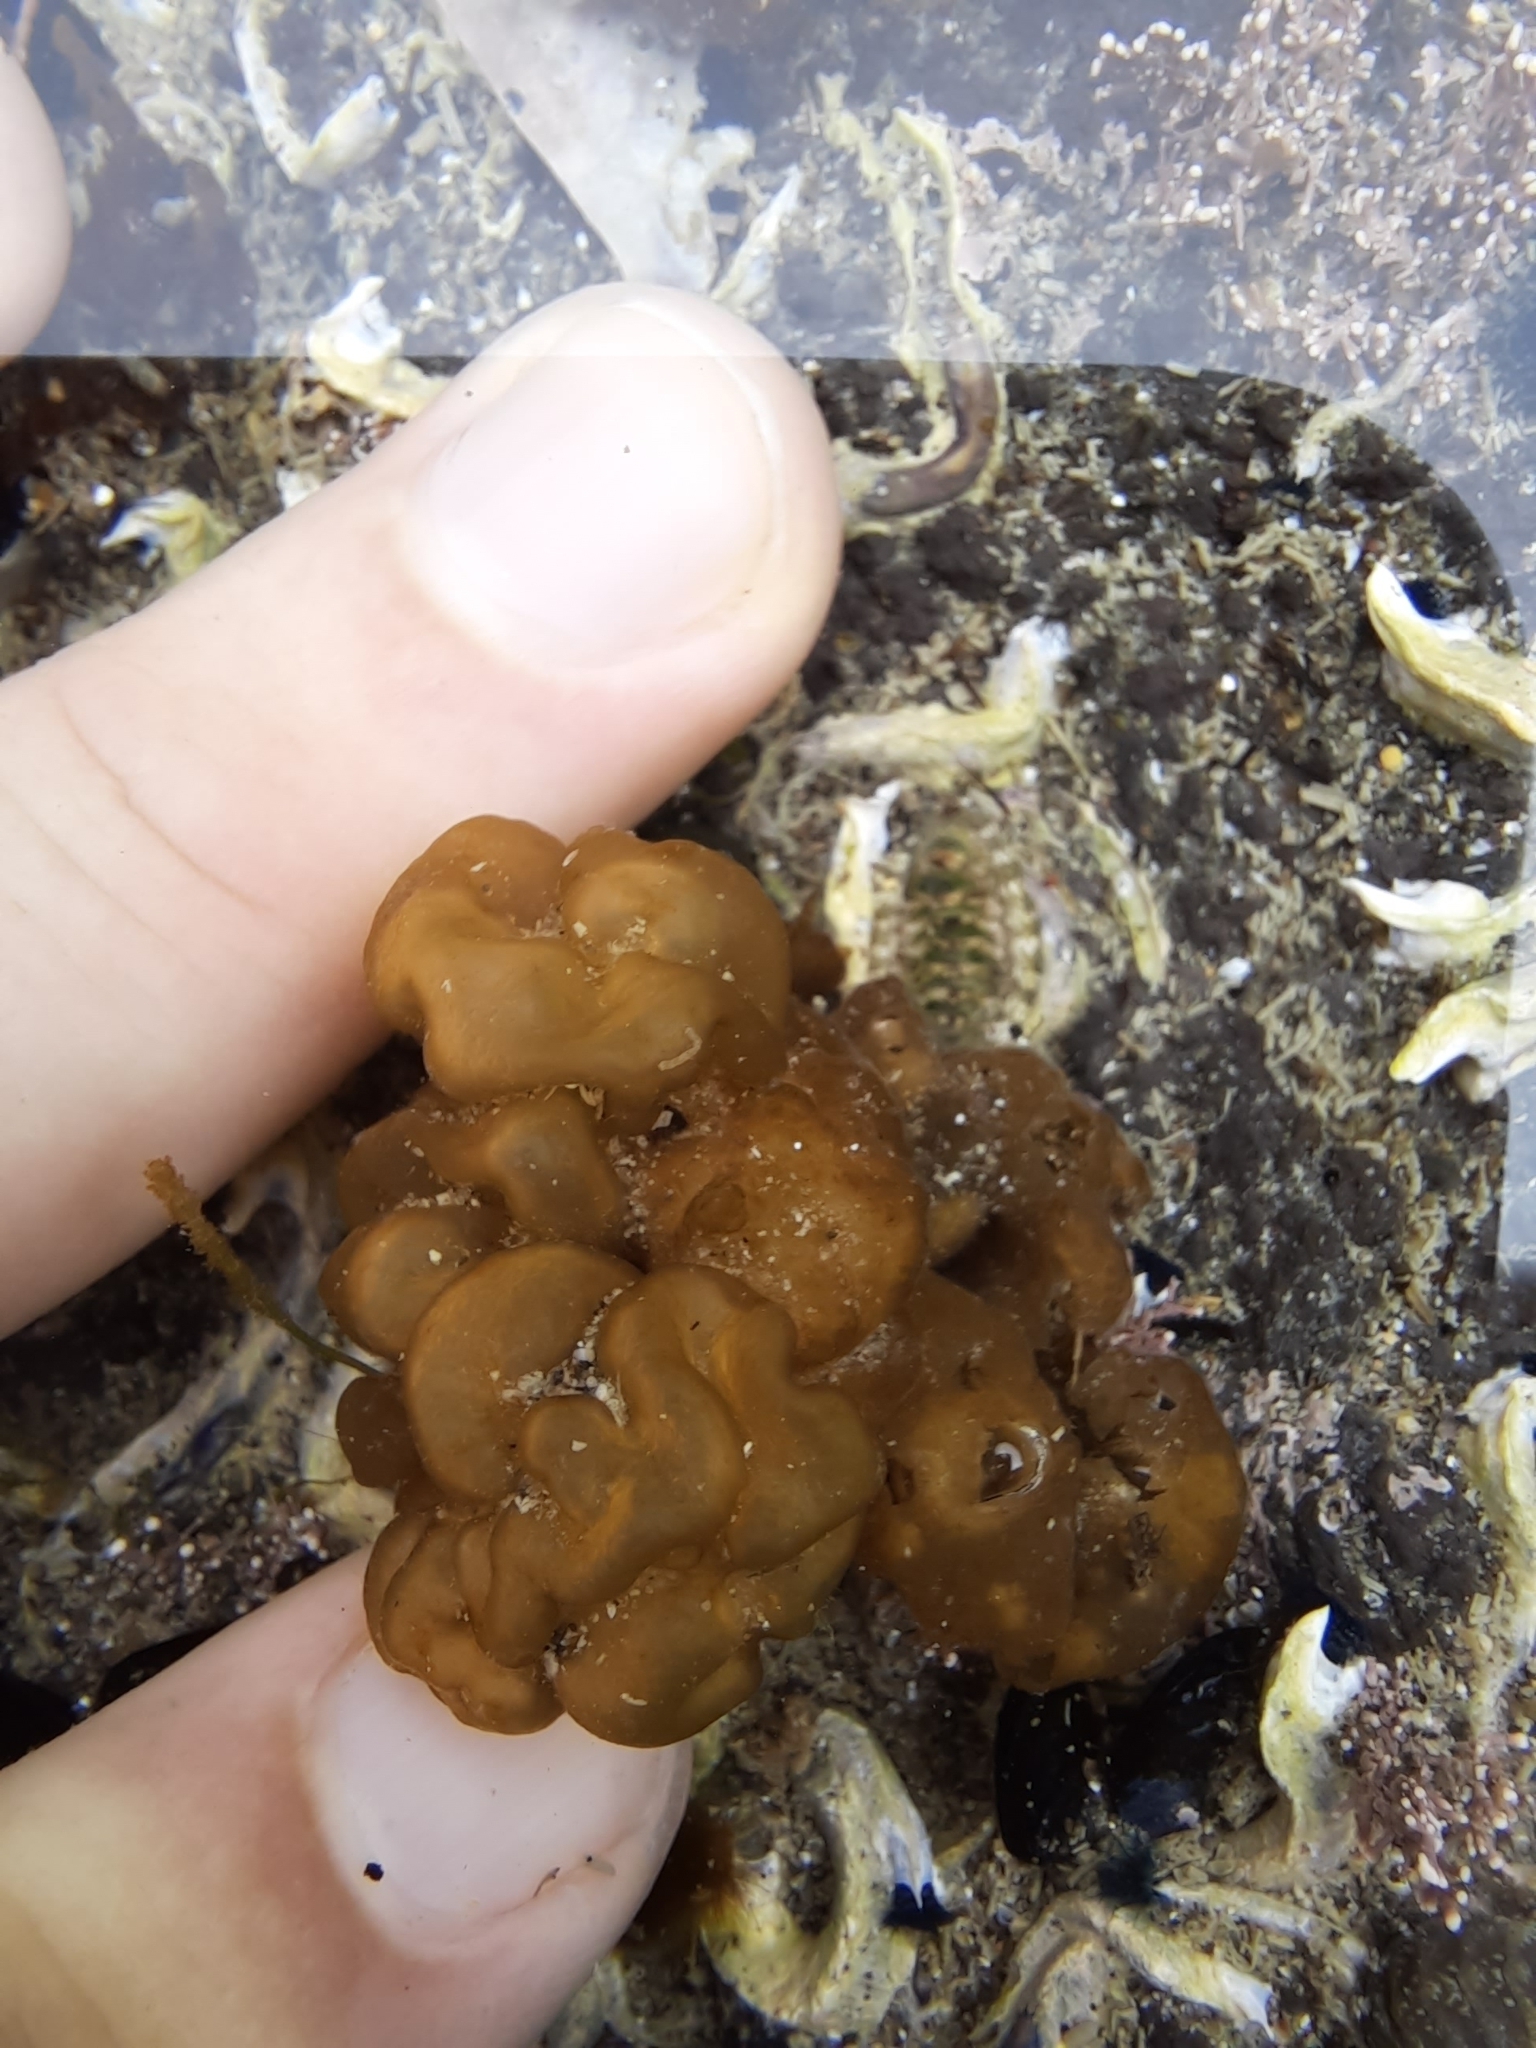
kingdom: Chromista
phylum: Ochrophyta
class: Phaeophyceae
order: Ectocarpales
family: Chordariaceae
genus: Leathesia
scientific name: Leathesia marina
